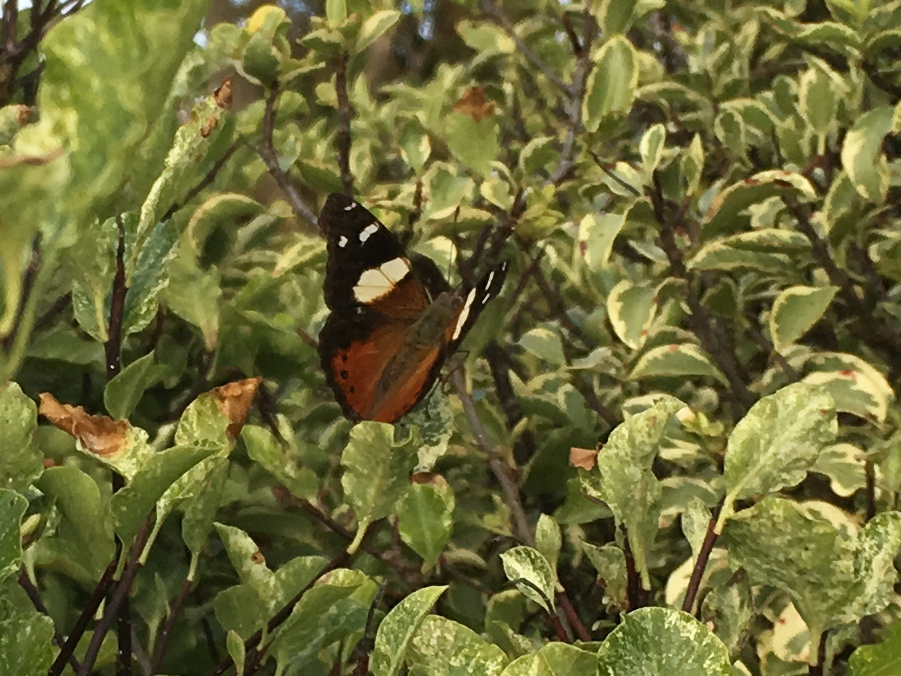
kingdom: Animalia
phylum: Arthropoda
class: Insecta
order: Lepidoptera
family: Nymphalidae
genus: Vanessa
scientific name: Vanessa itea
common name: Yellow admiral
